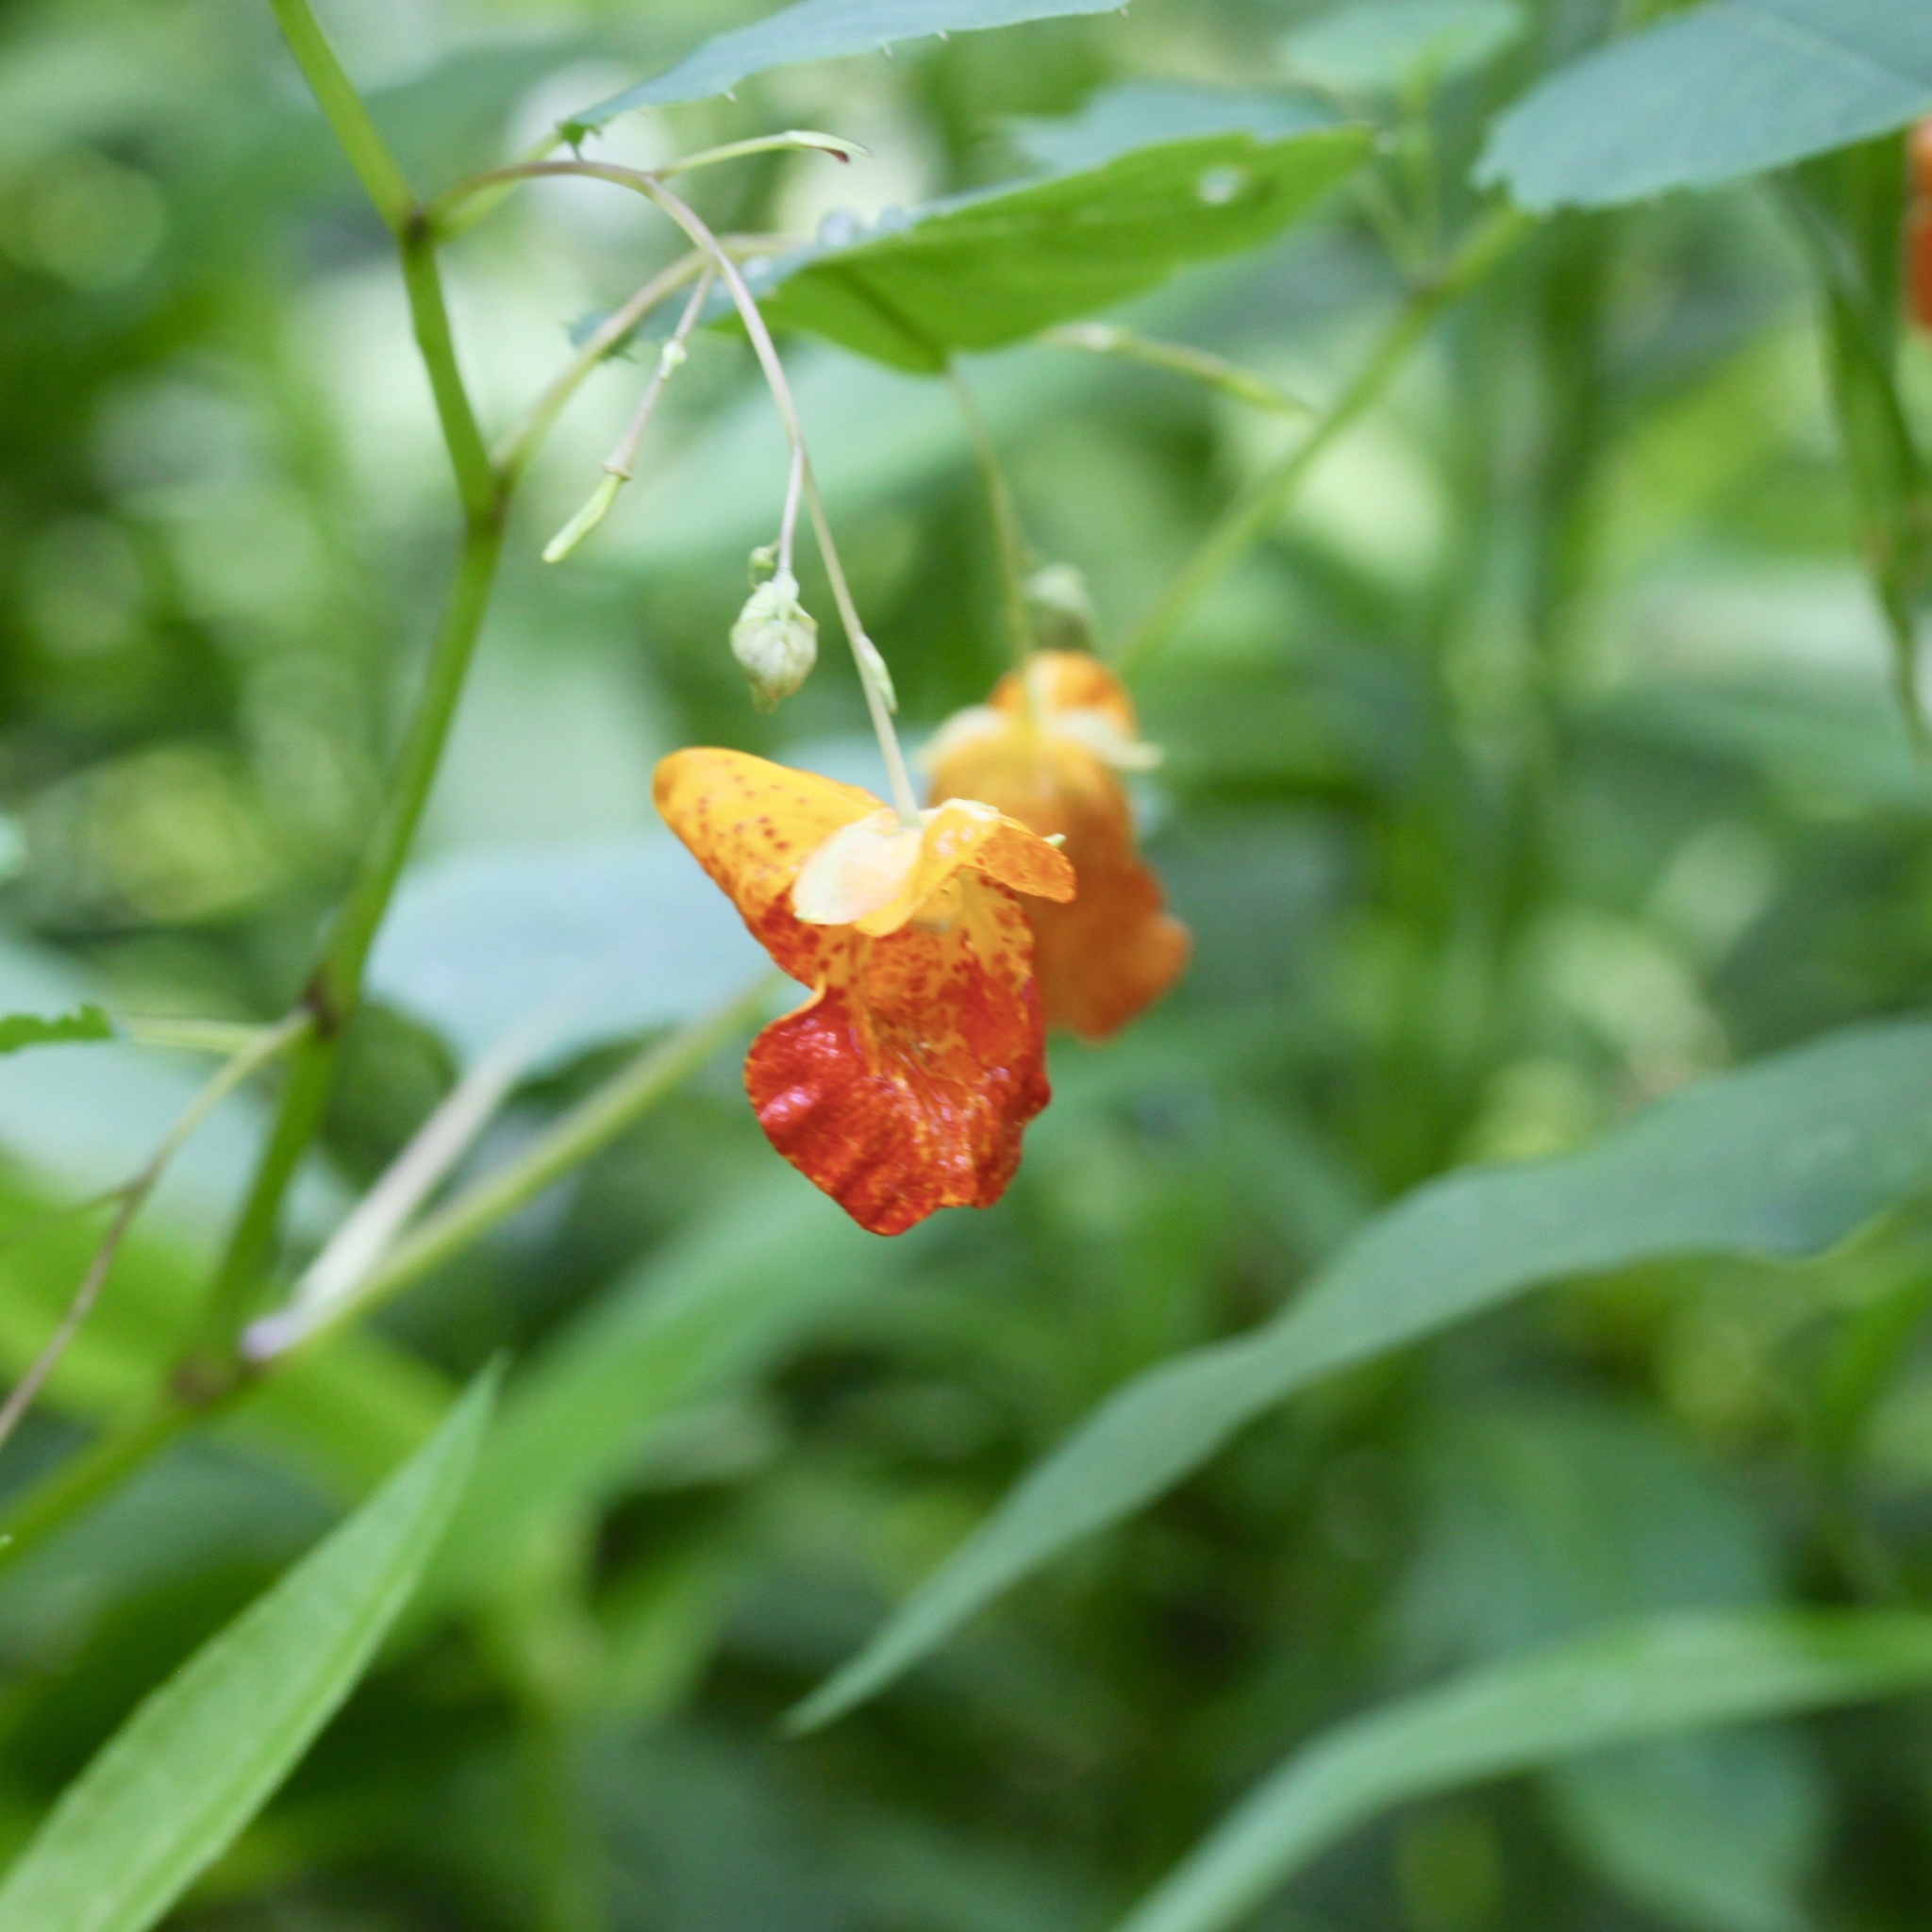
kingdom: Plantae
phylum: Tracheophyta
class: Magnoliopsida
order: Ericales
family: Balsaminaceae
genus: Impatiens
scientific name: Impatiens capensis
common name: Orange balsam
